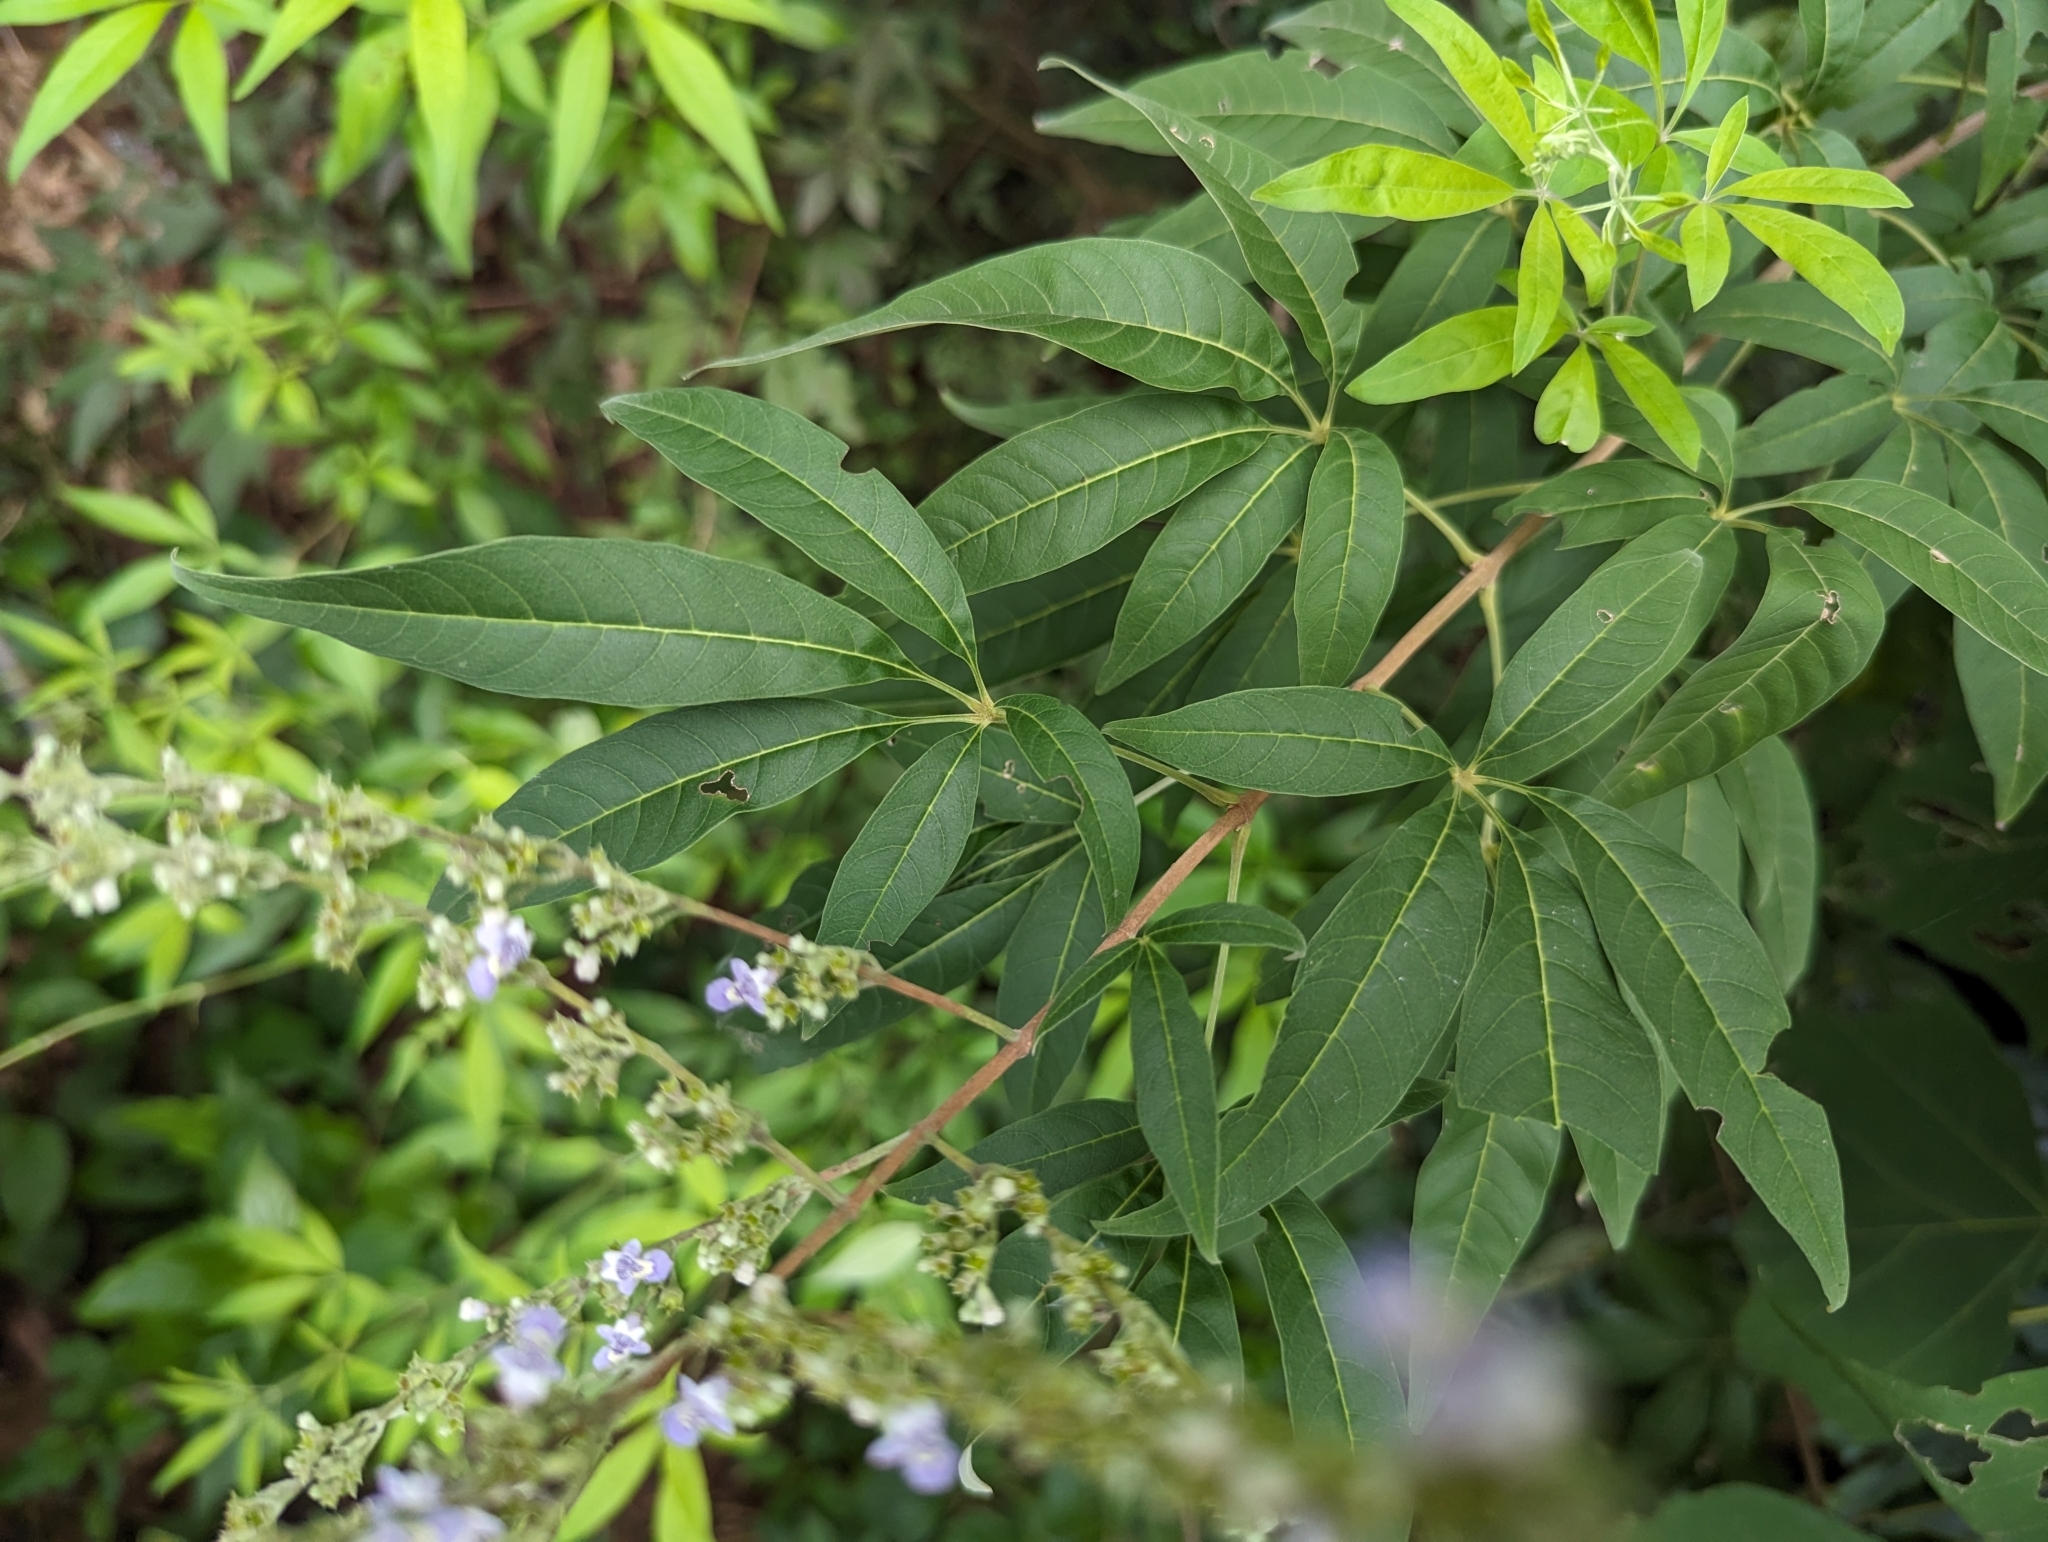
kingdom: Plantae
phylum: Tracheophyta
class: Magnoliopsida
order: Lamiales
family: Lamiaceae
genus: Vitex
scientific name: Vitex negundo
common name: Chinese chastetree
